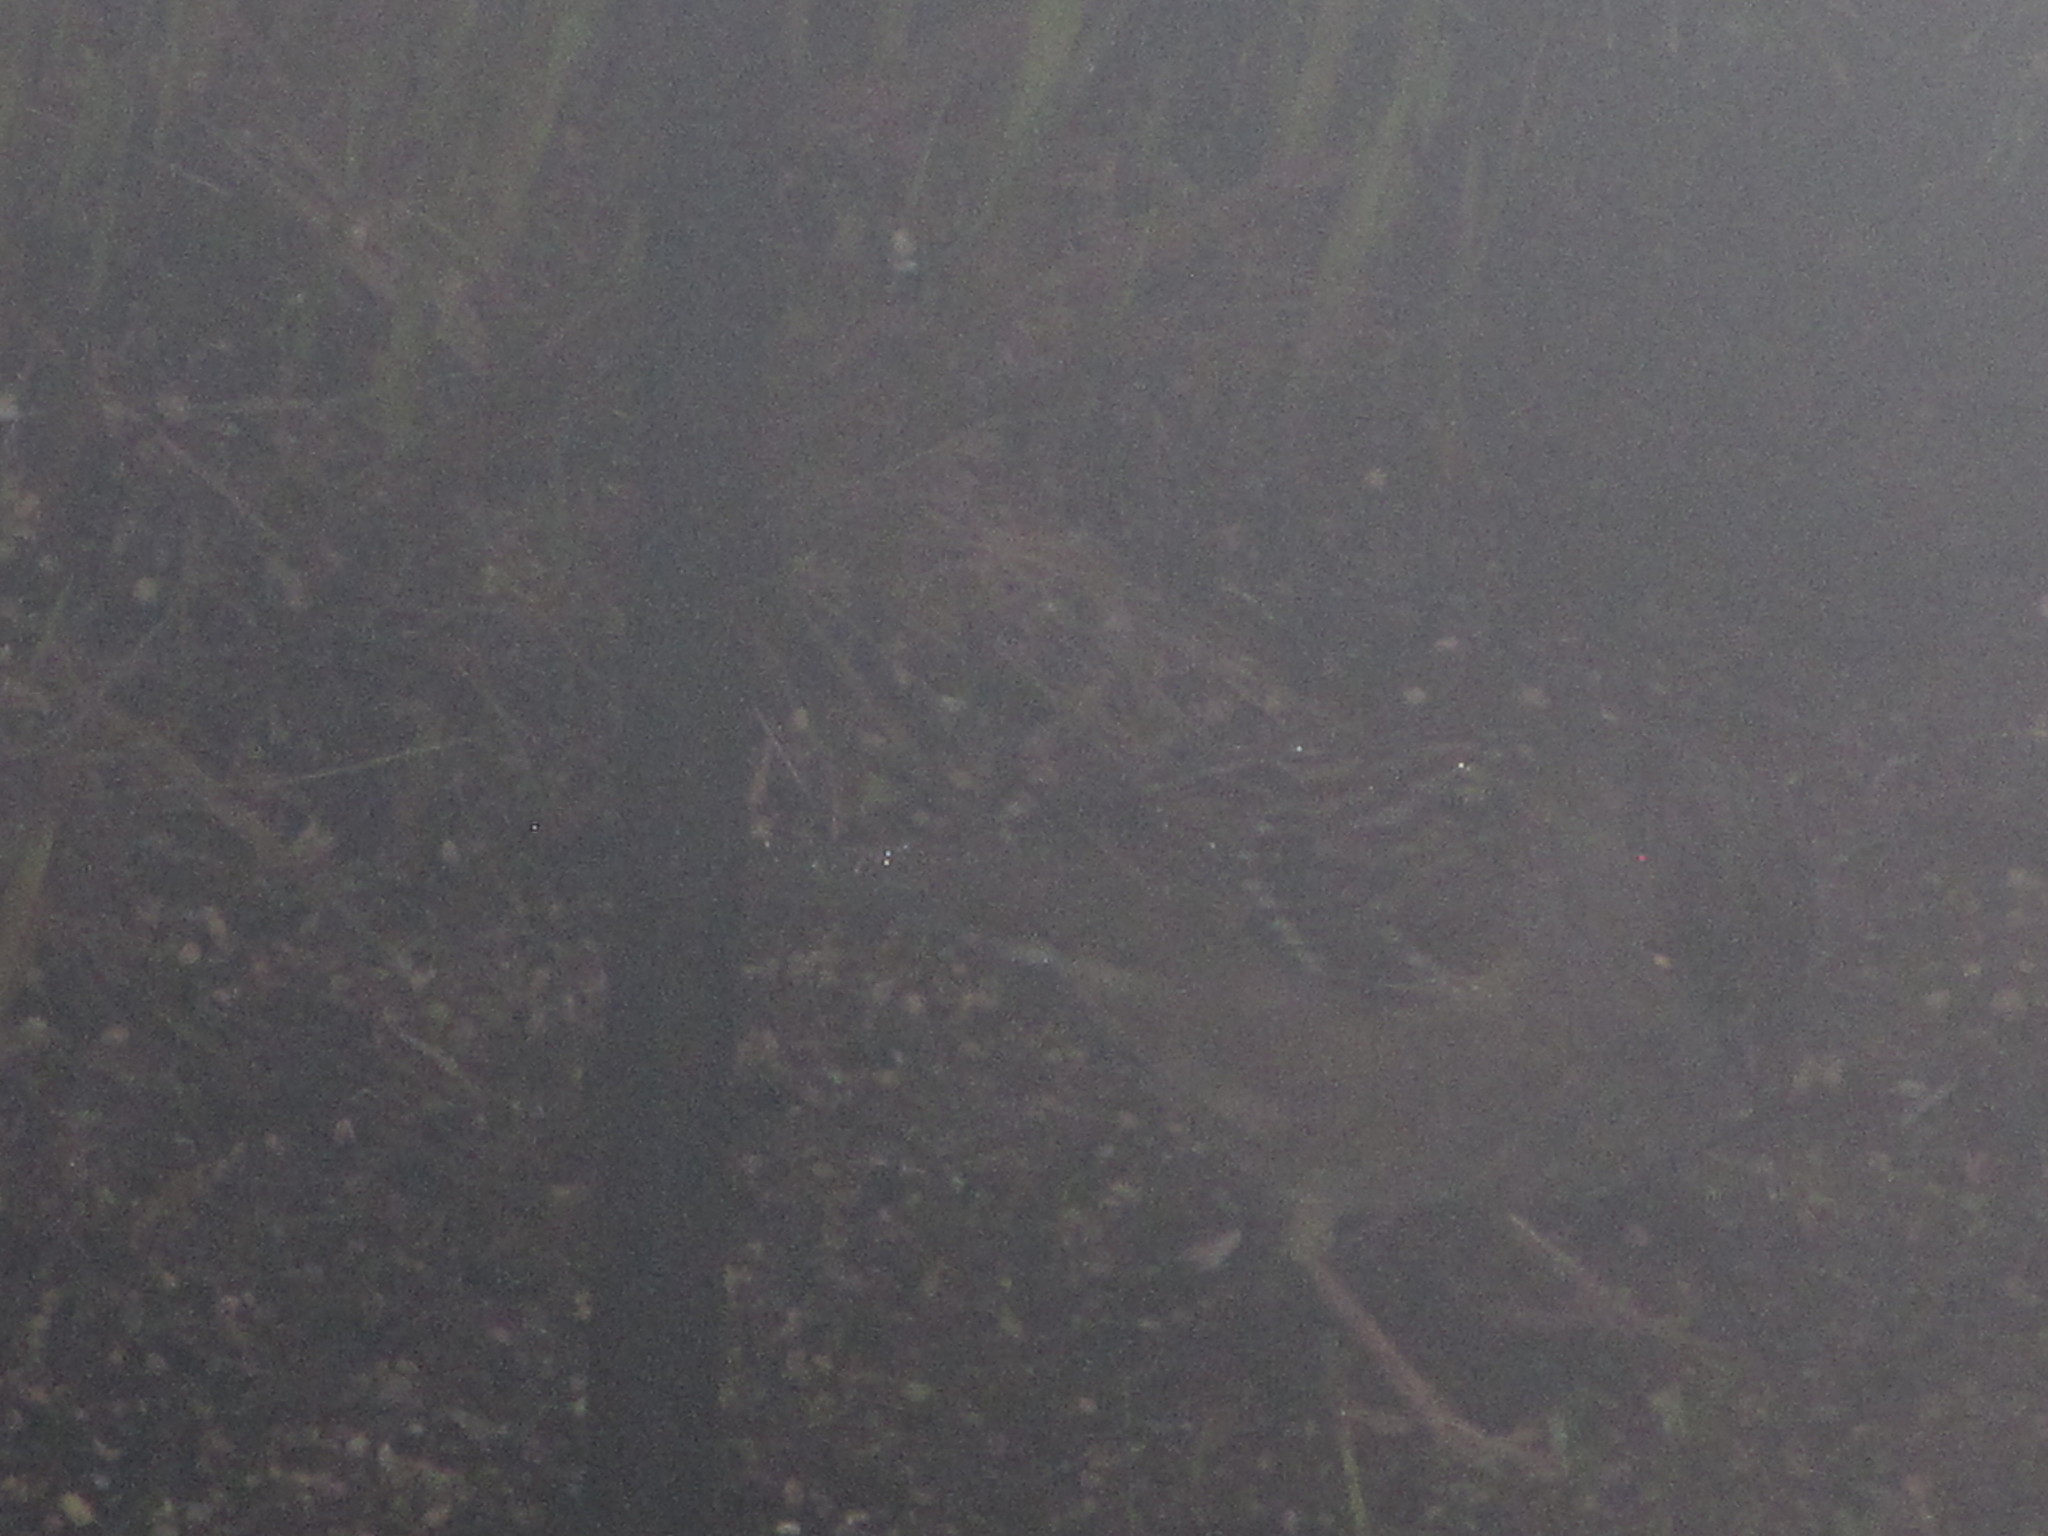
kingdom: Animalia
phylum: Chordata
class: Aves
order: Passeriformes
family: Passerellidae
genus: Zonotrichia
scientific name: Zonotrichia atricapilla
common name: Golden-crowned sparrow
